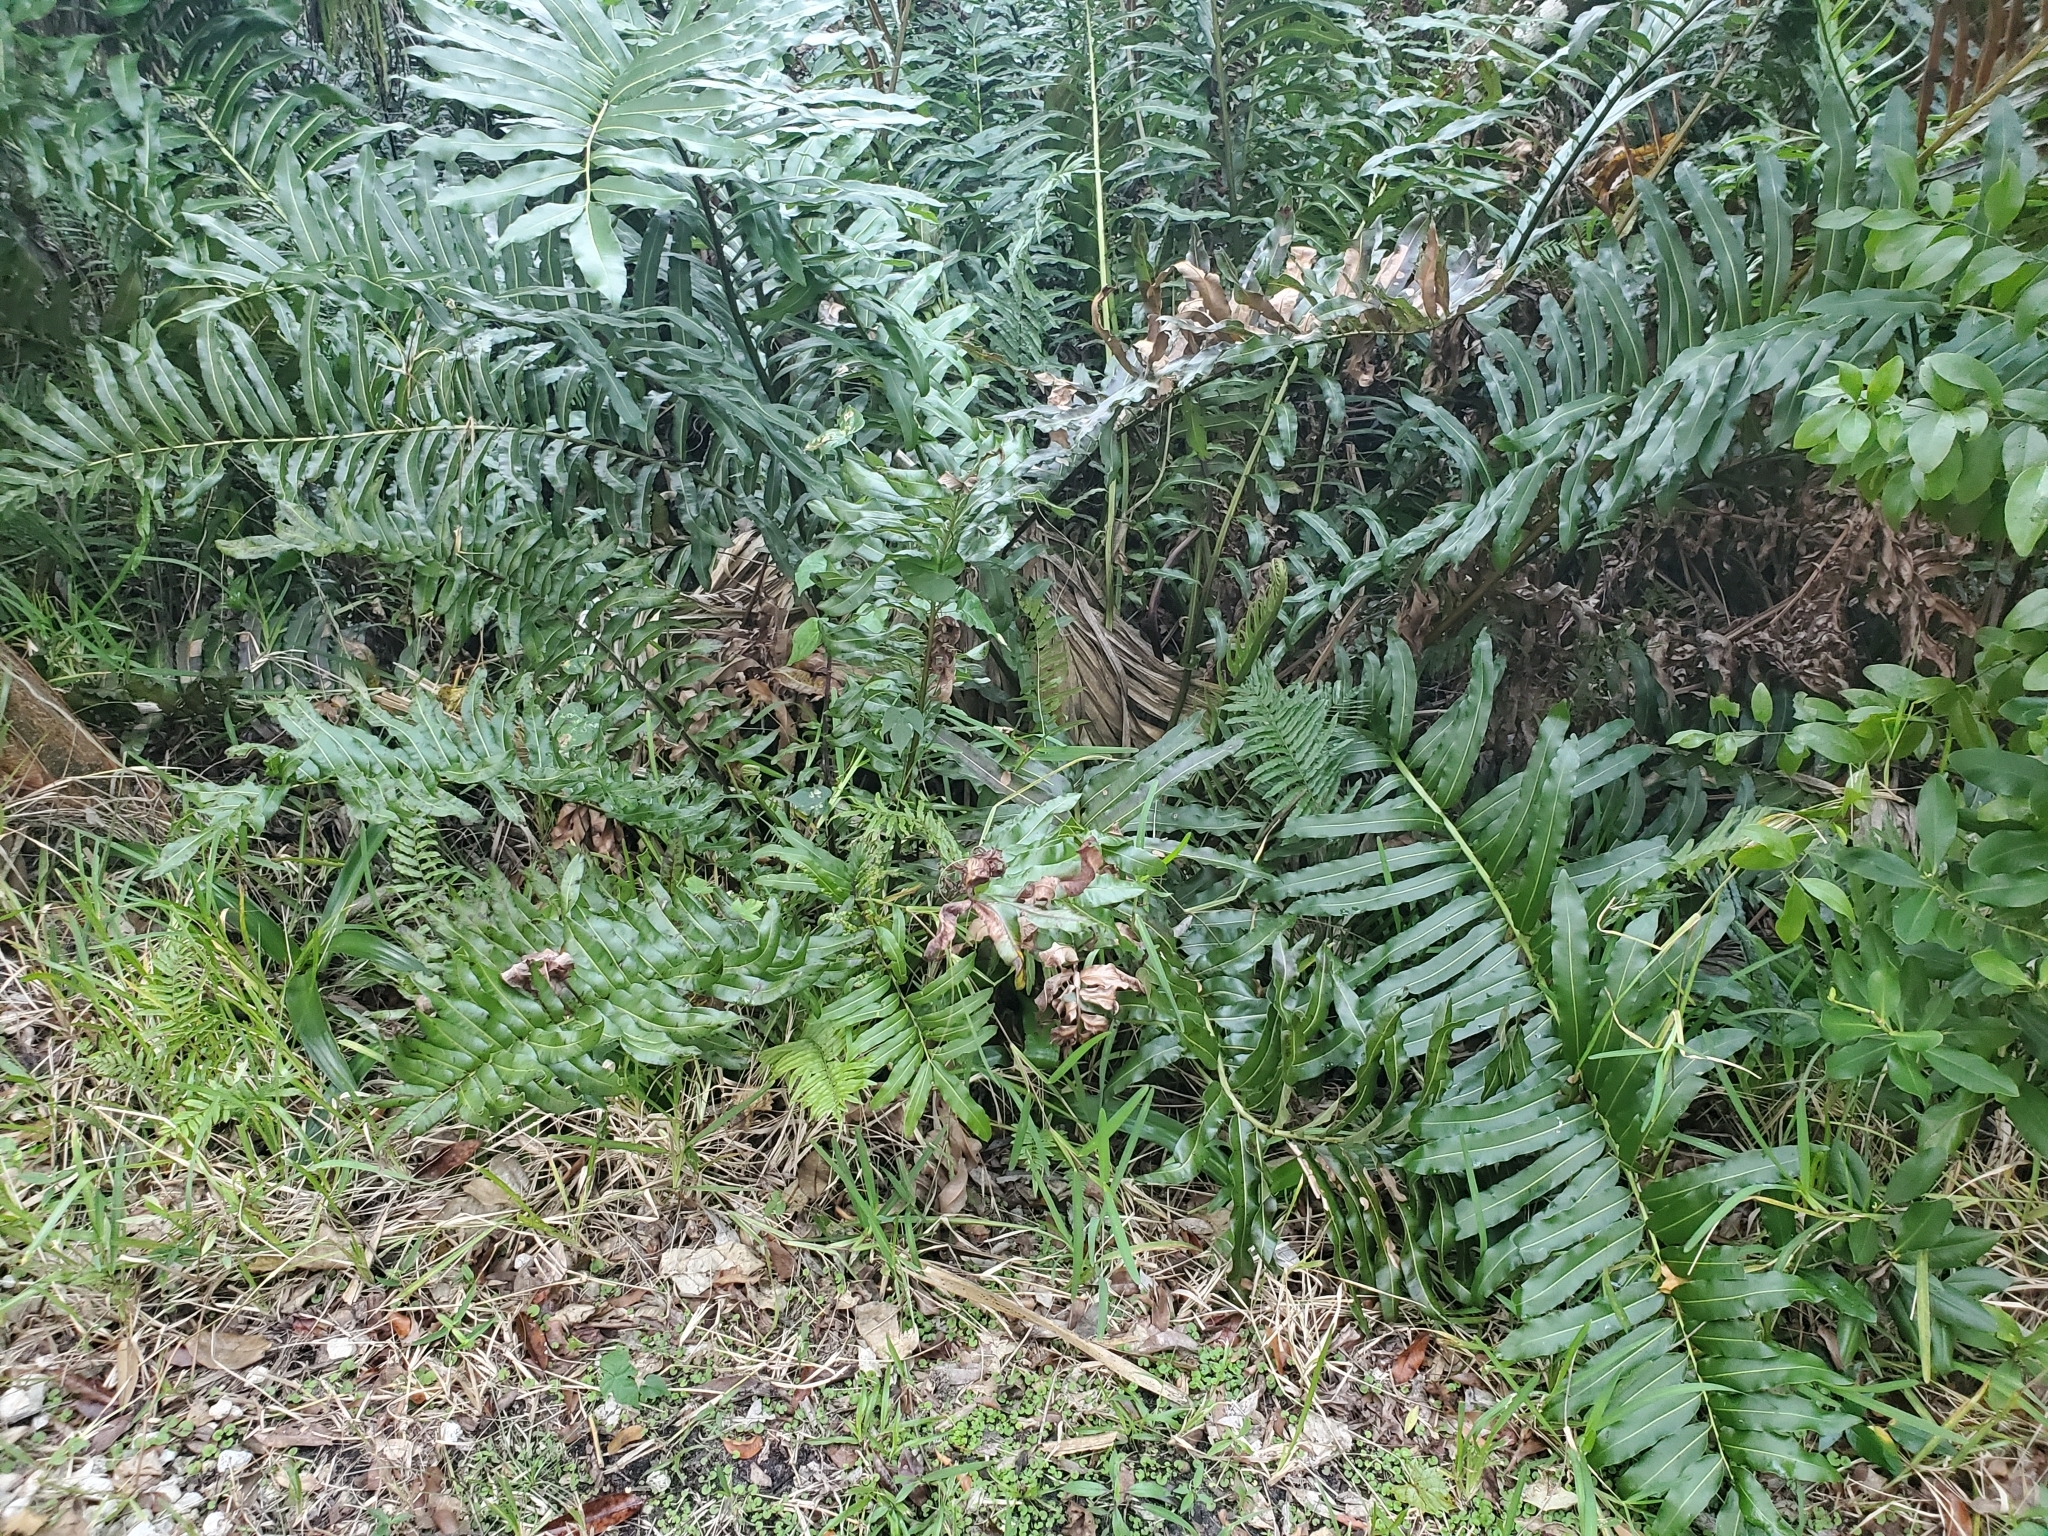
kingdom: Plantae
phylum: Tracheophyta
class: Polypodiopsida
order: Polypodiales
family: Pteridaceae
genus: Acrostichum
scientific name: Acrostichum danaeifolium
